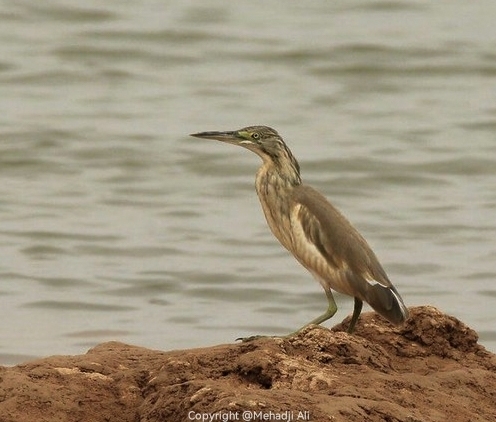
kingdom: Animalia
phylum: Chordata
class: Aves
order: Pelecaniformes
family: Ardeidae
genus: Ardeola
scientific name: Ardeola ralloides
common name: Squacco heron
